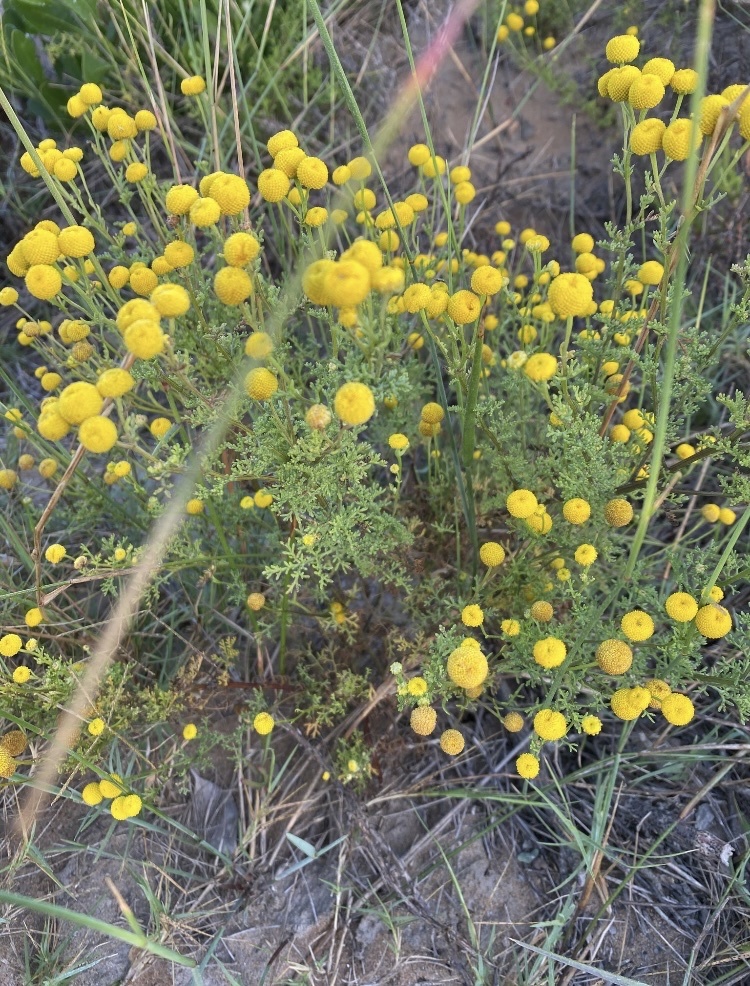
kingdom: Plantae
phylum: Tracheophyta
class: Magnoliopsida
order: Asterales
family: Asteraceae
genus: Oncosiphon
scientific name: Oncosiphon sabulosus
